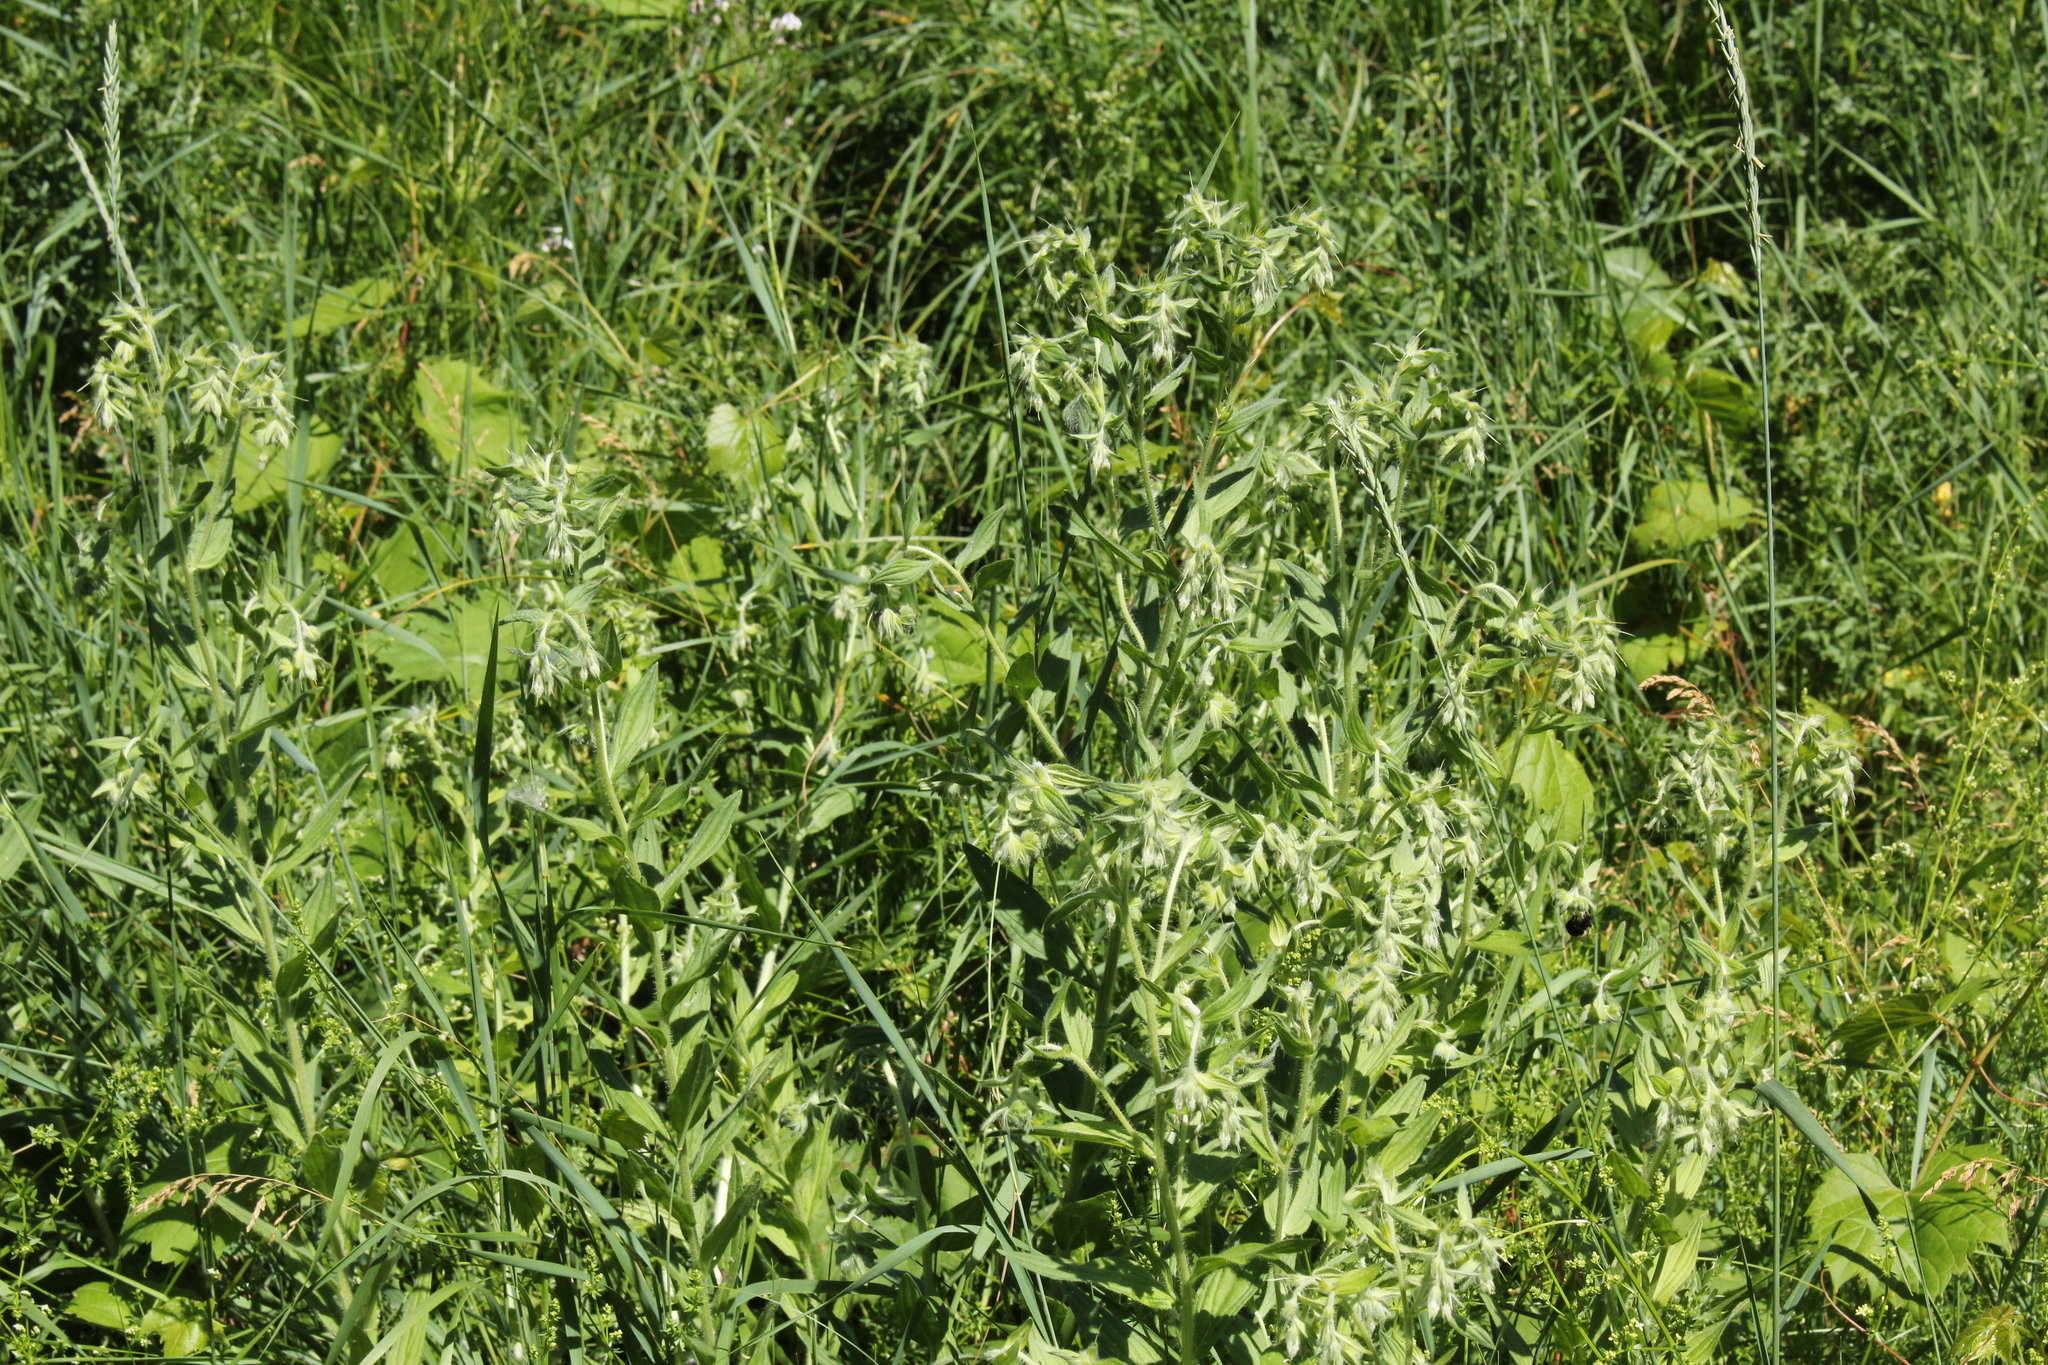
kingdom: Plantae
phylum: Tracheophyta
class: Magnoliopsida
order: Boraginales
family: Boraginaceae
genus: Lithospermum
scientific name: Lithospermum parviflorum
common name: Hairy false gromwell
